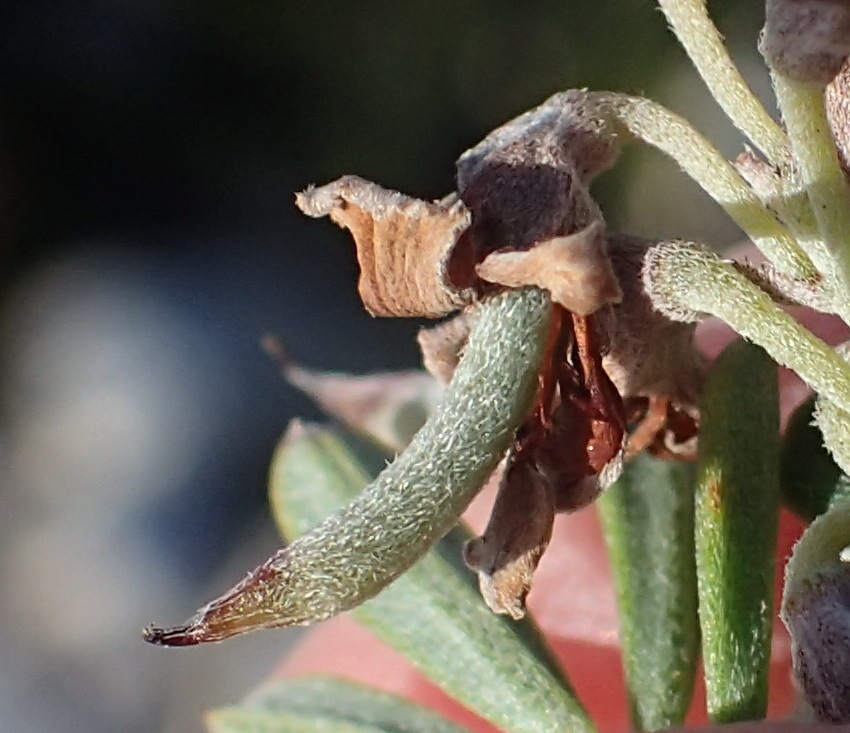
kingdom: Plantae
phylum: Tracheophyta
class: Magnoliopsida
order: Fabales
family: Fabaceae
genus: Indigofera
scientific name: Indigofera flabellata
